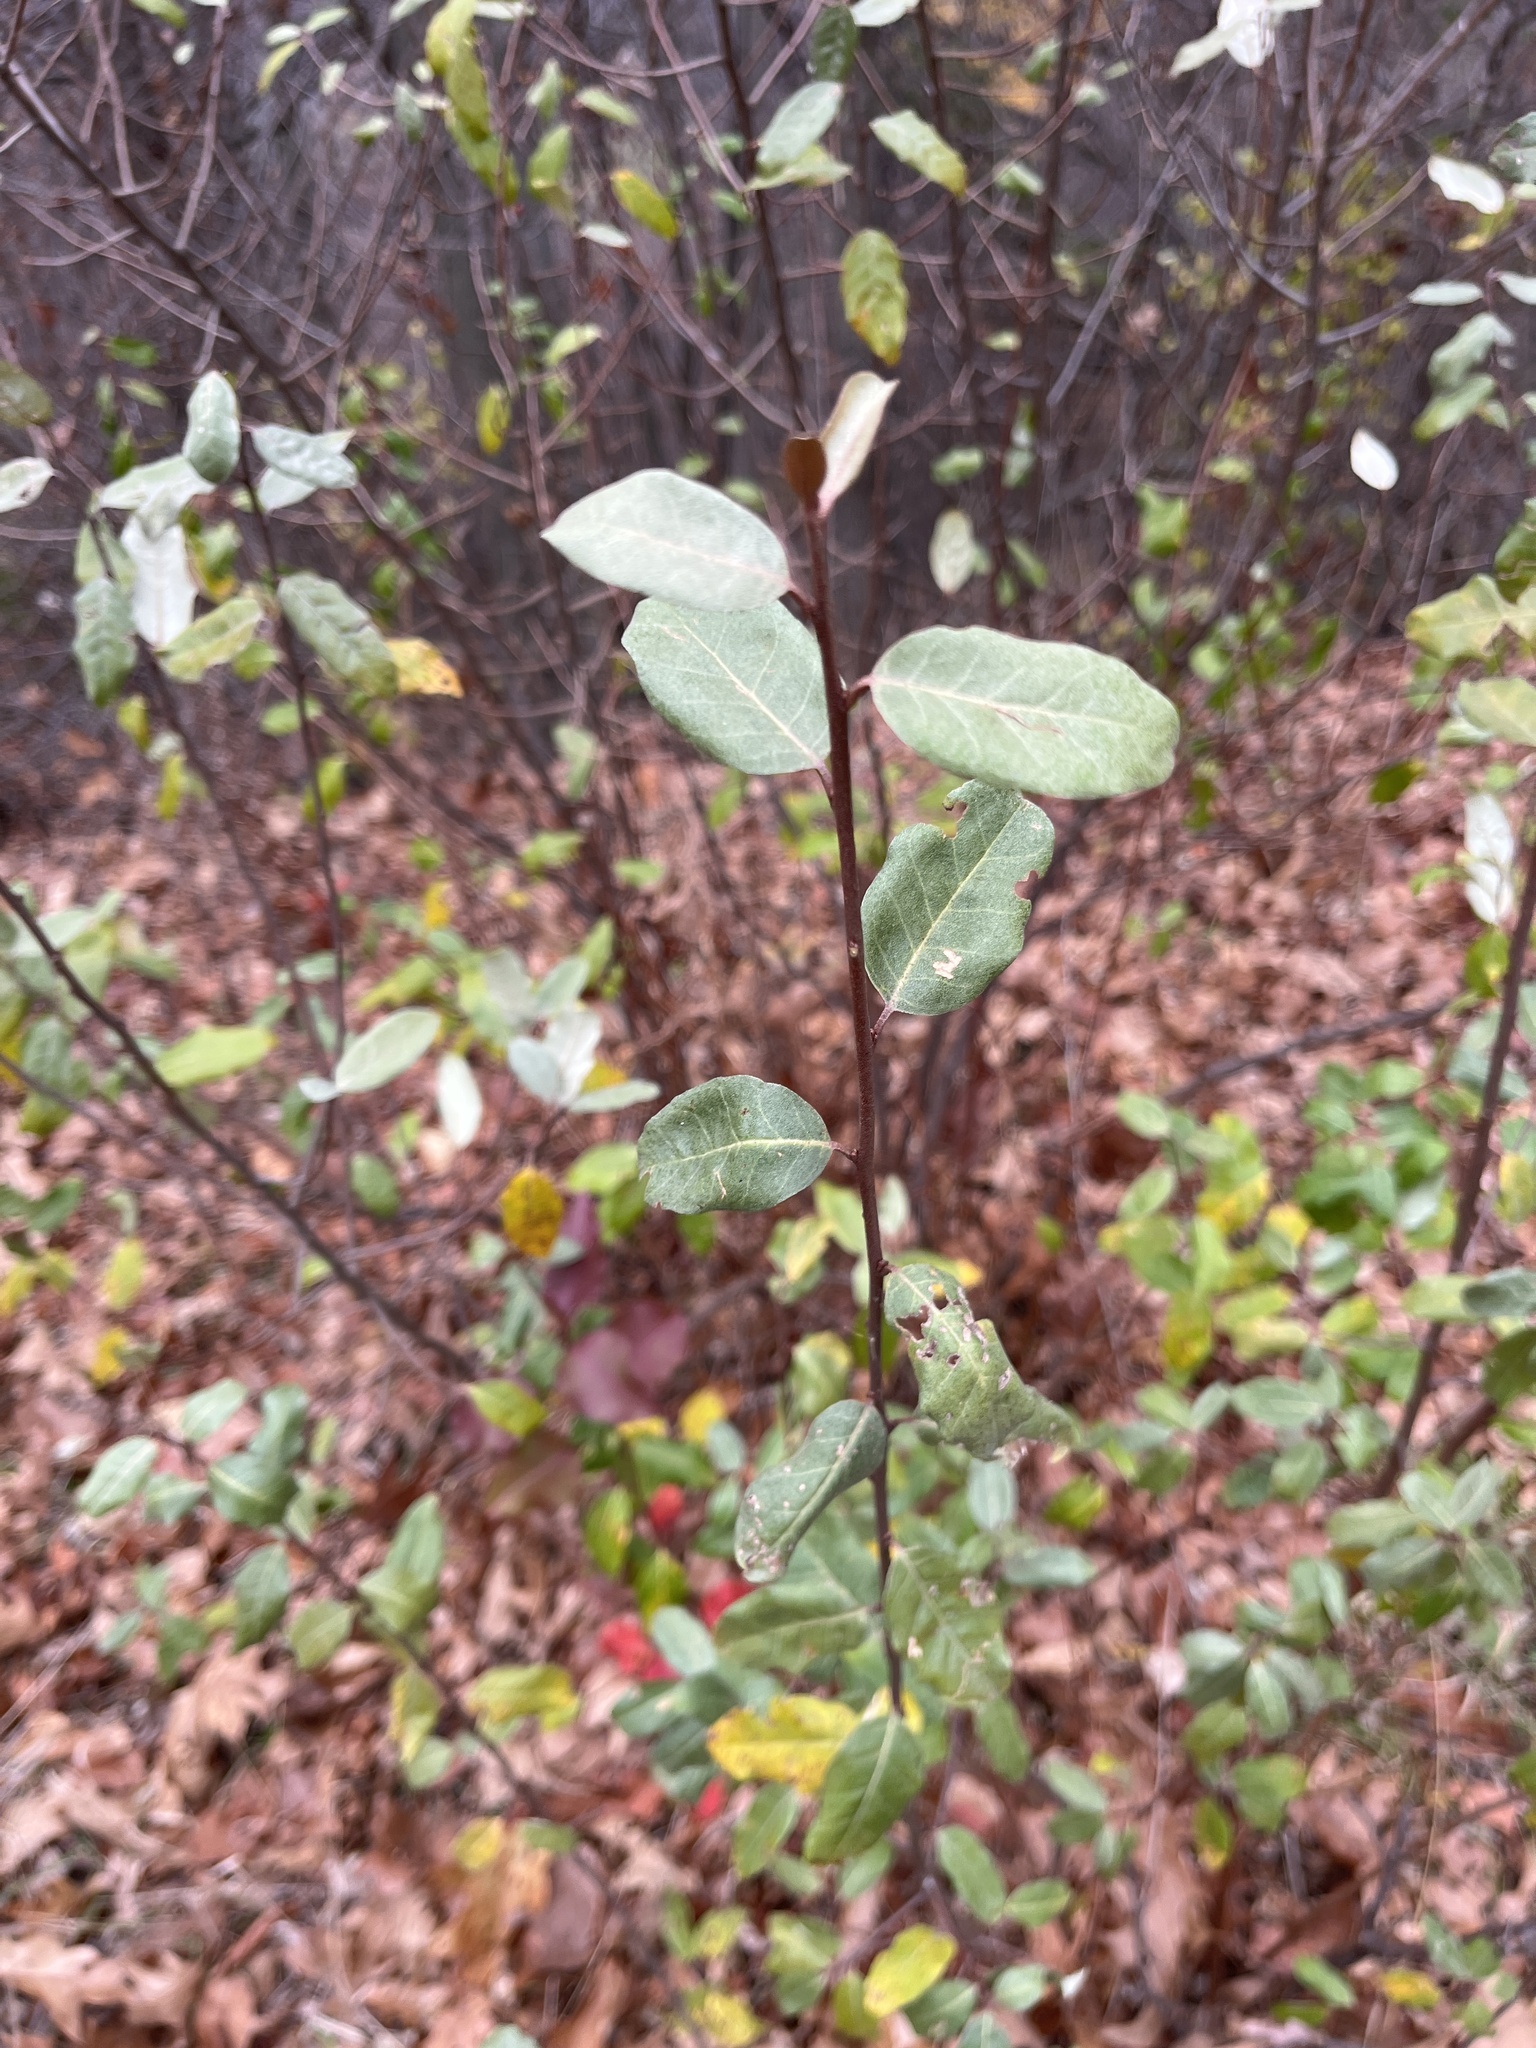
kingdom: Plantae
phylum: Tracheophyta
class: Magnoliopsida
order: Rosales
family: Elaeagnaceae
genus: Elaeagnus
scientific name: Elaeagnus umbellata
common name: Autumn olive
